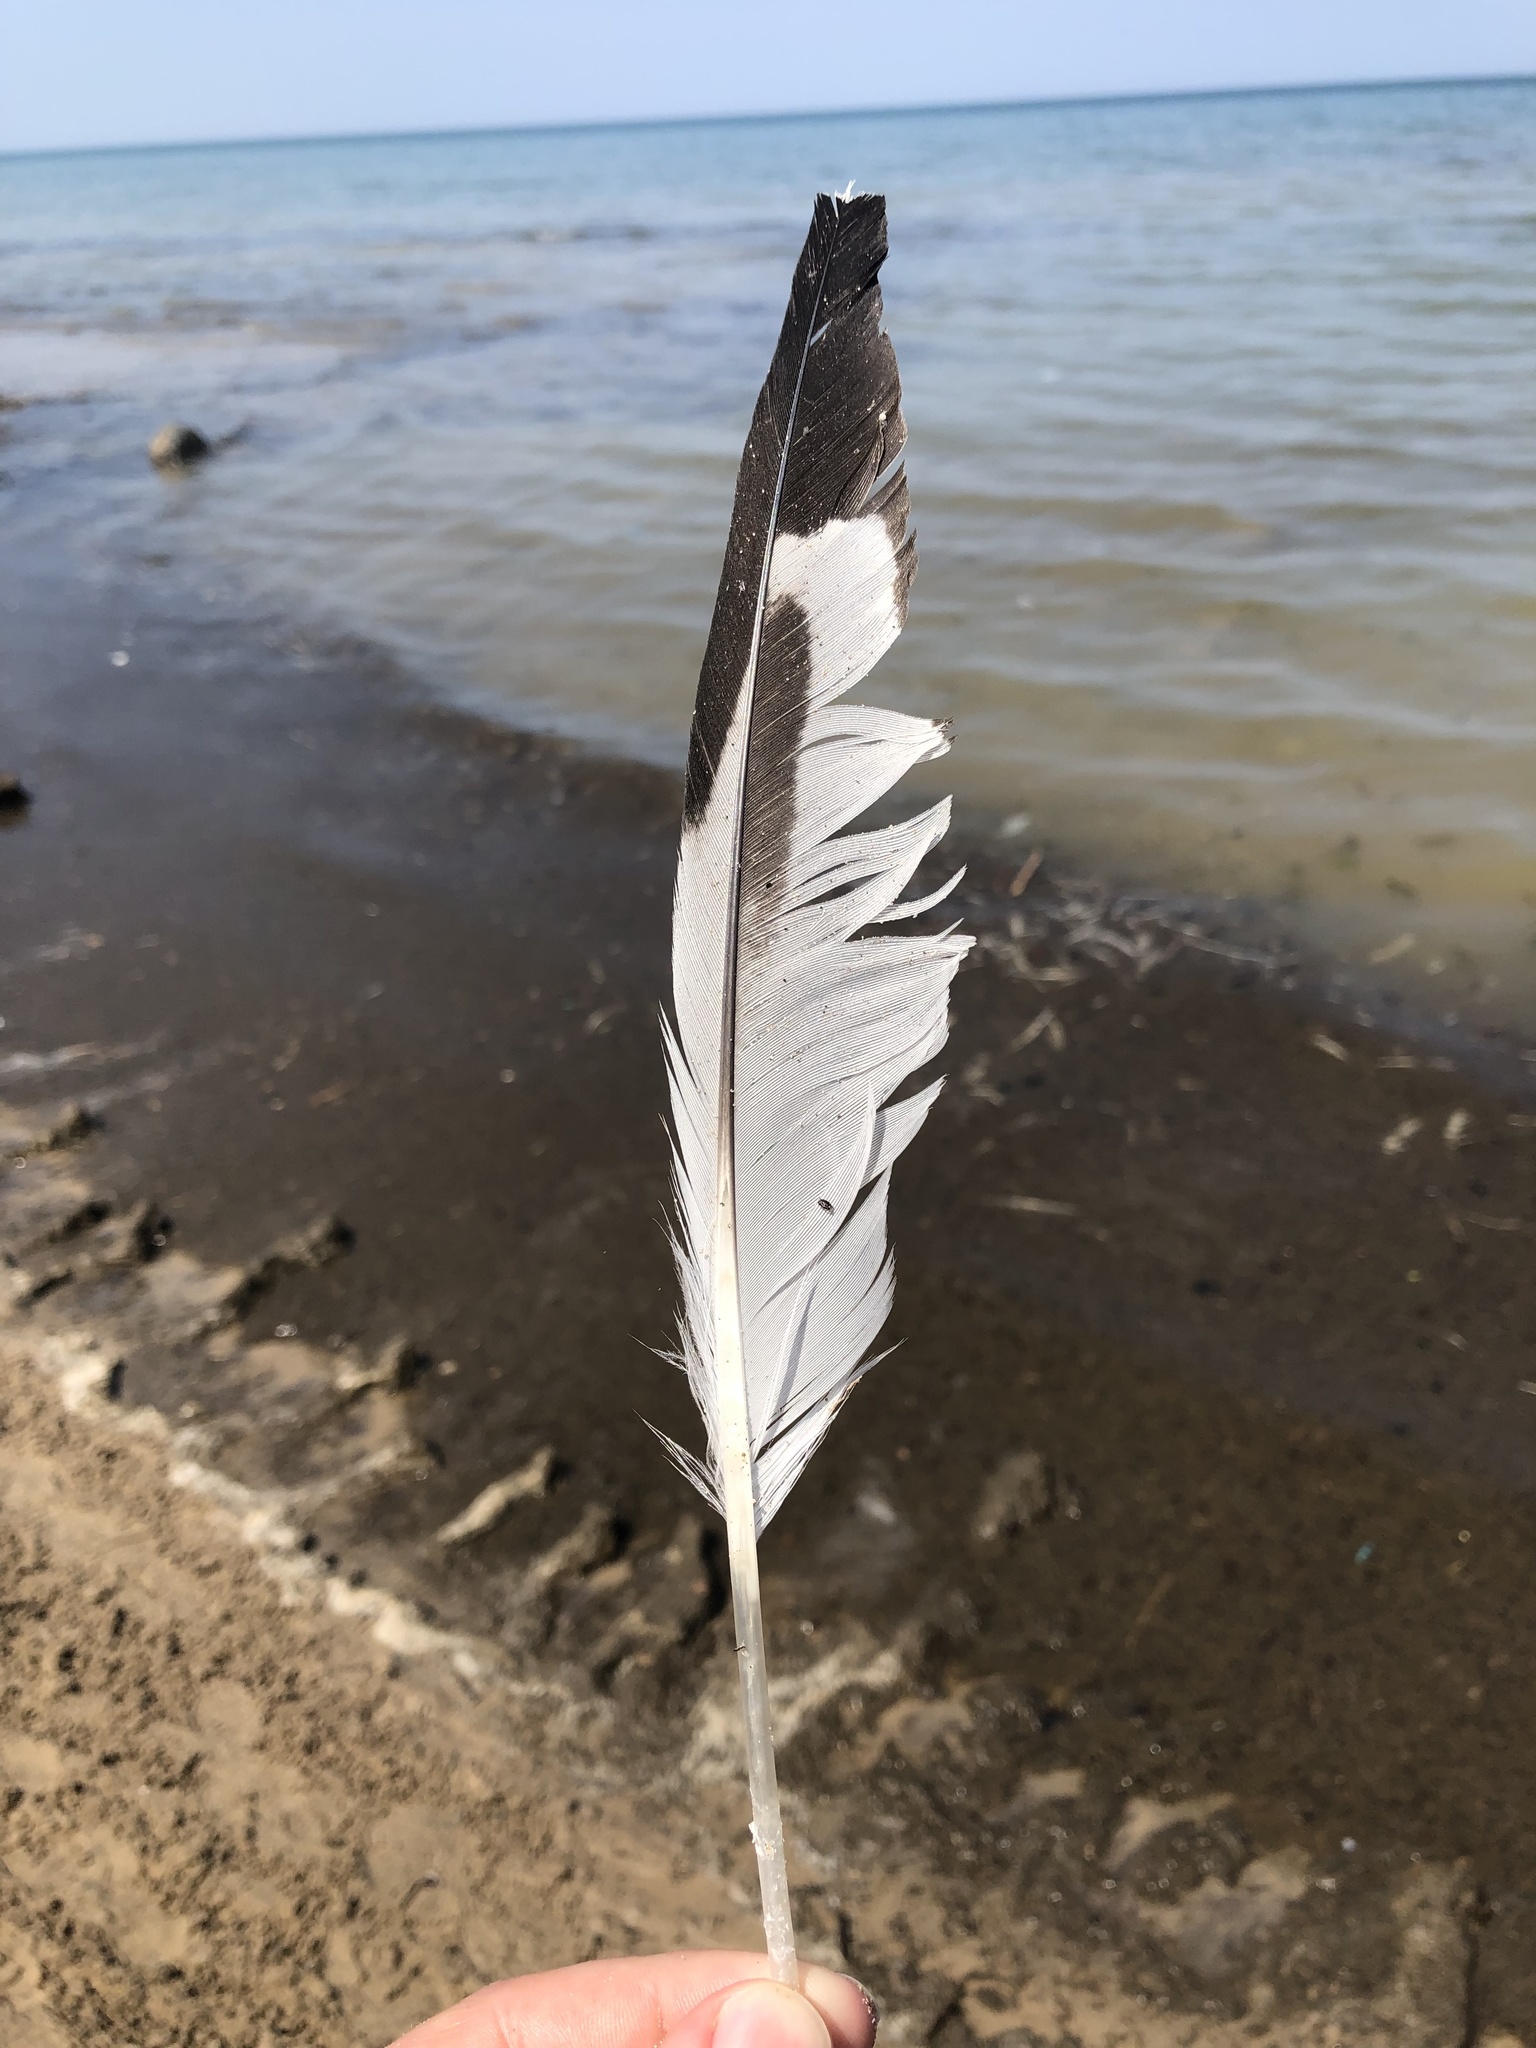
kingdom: Animalia
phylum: Chordata
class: Aves
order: Charadriiformes
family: Laridae
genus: Larus
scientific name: Larus delawarensis
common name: Ring-billed gull
